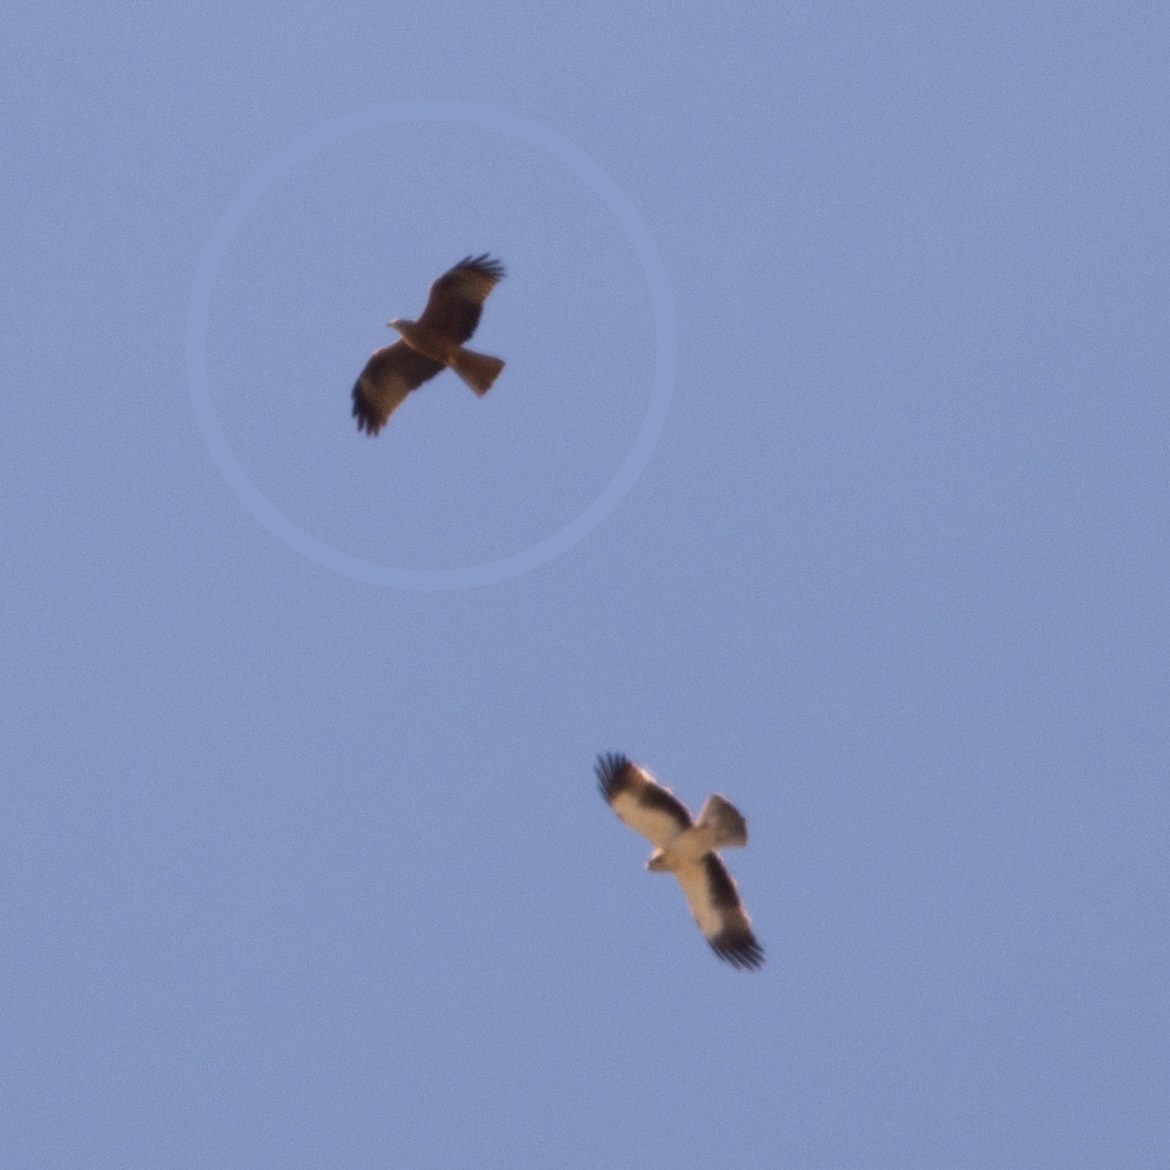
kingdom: Animalia
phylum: Chordata
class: Aves
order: Accipitriformes
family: Accipitridae
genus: Milvus
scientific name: Milvus migrans
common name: Black kite
